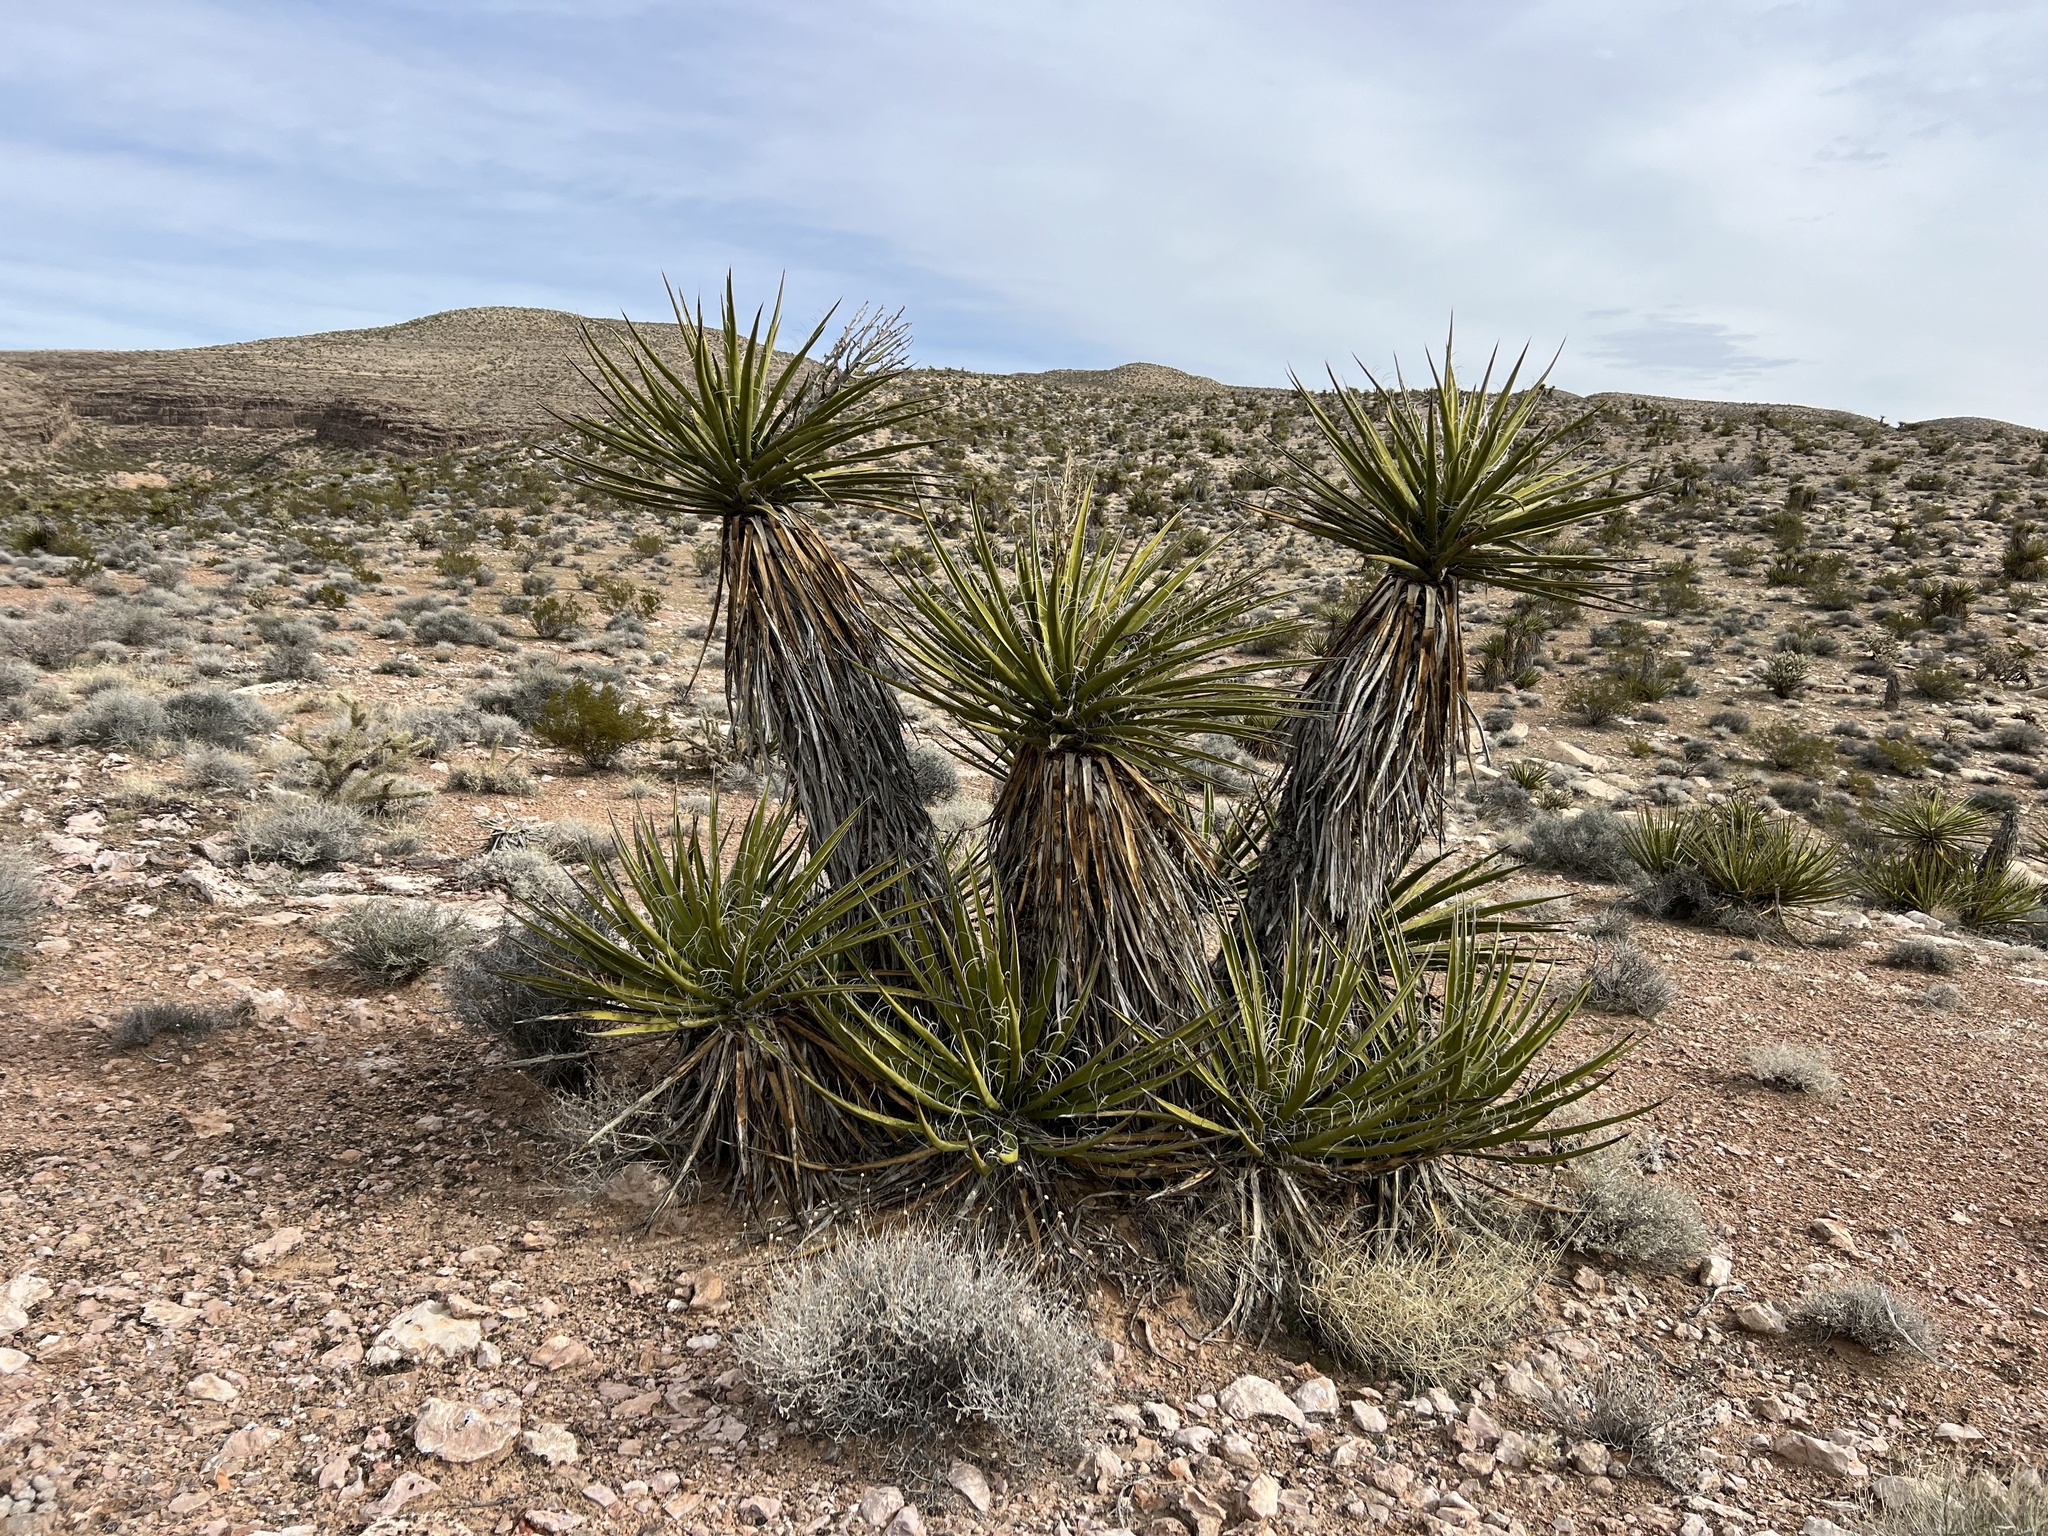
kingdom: Plantae
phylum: Tracheophyta
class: Liliopsida
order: Asparagales
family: Asparagaceae
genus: Yucca
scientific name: Yucca schidigera
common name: Mojave yucca
